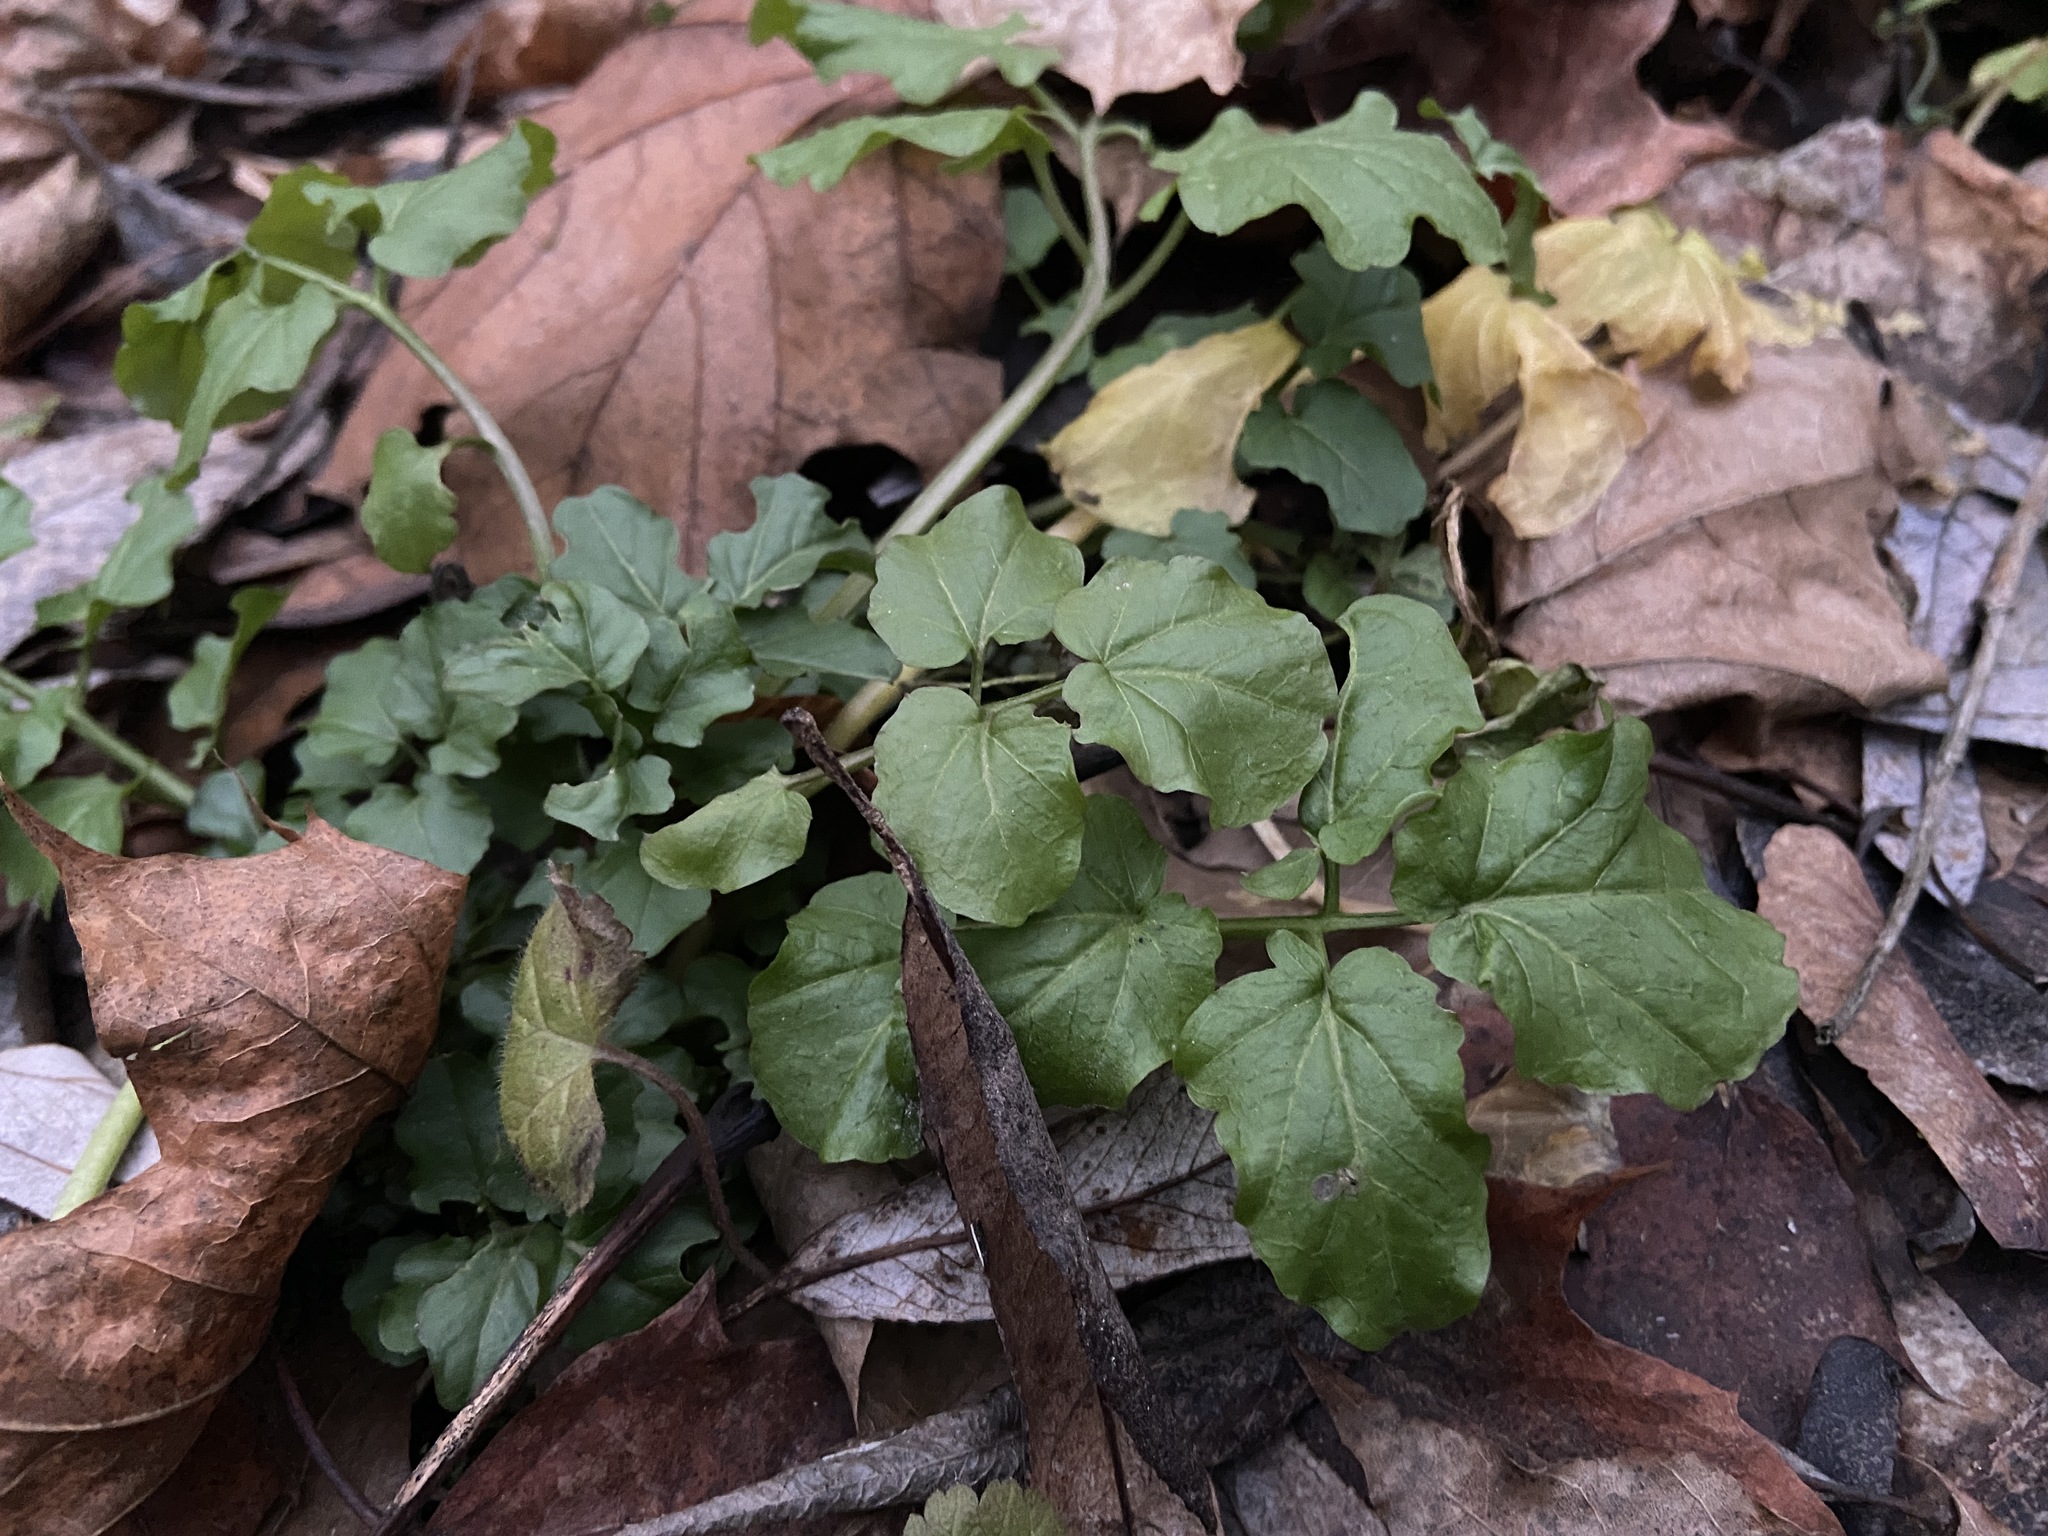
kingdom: Plantae
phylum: Tracheophyta
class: Magnoliopsida
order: Brassicales
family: Brassicaceae
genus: Cardamine
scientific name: Cardamine amara
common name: Large bitter-cress
